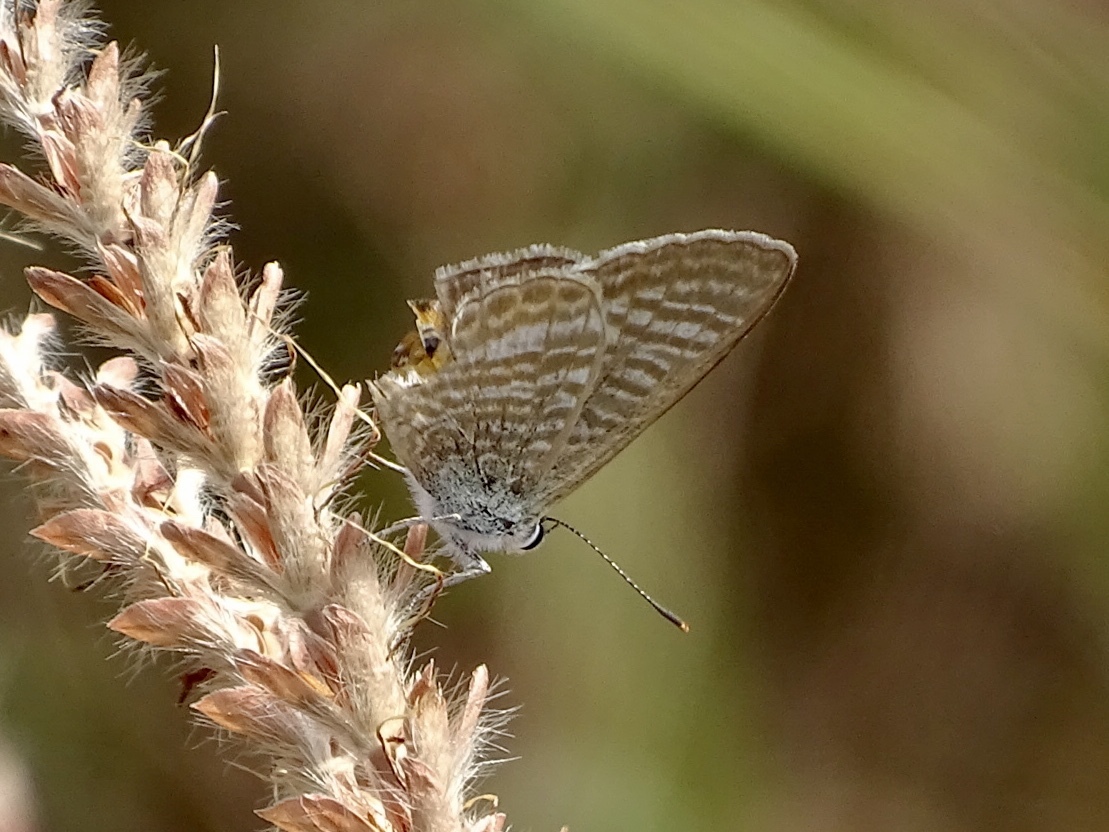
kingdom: Animalia
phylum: Arthropoda
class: Insecta
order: Lepidoptera
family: Lycaenidae
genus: Lampides
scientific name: Lampides boeticus
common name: Long-tailed blue
